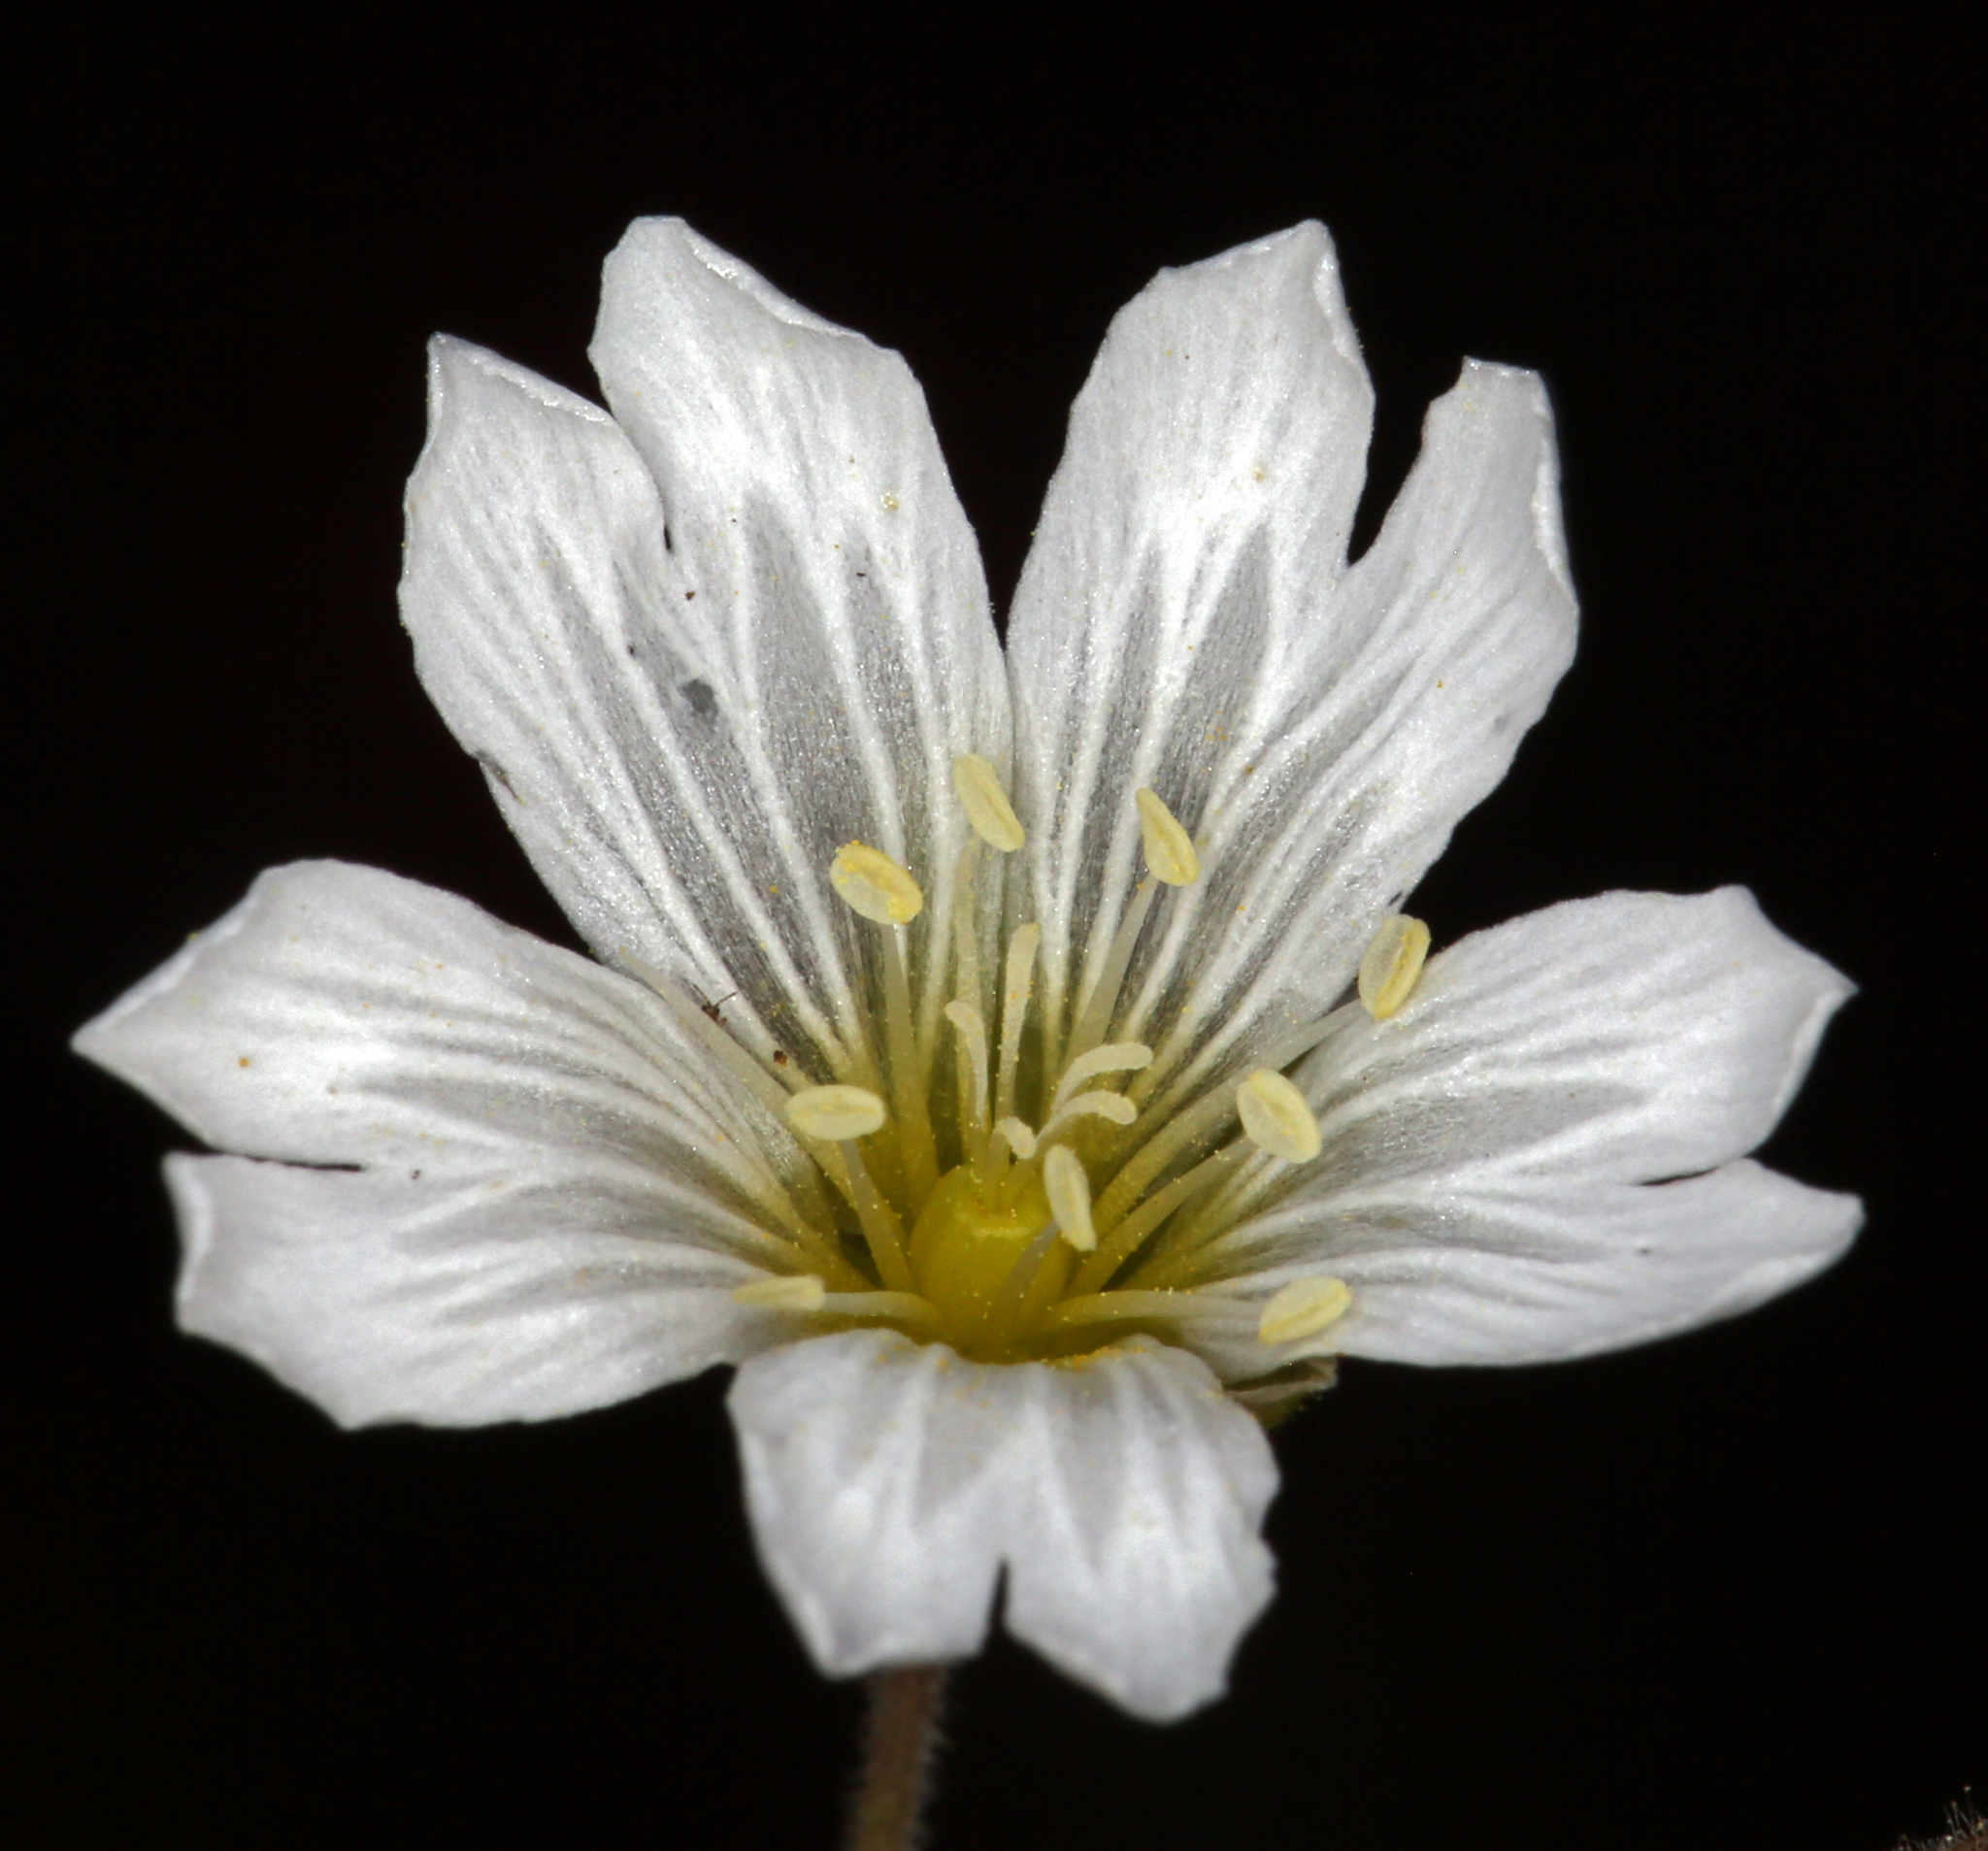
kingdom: Plantae
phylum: Tracheophyta
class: Magnoliopsida
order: Caryophyllales
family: Caryophyllaceae
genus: Cerastium
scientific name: Cerastium arvense
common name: Field mouse-ear
